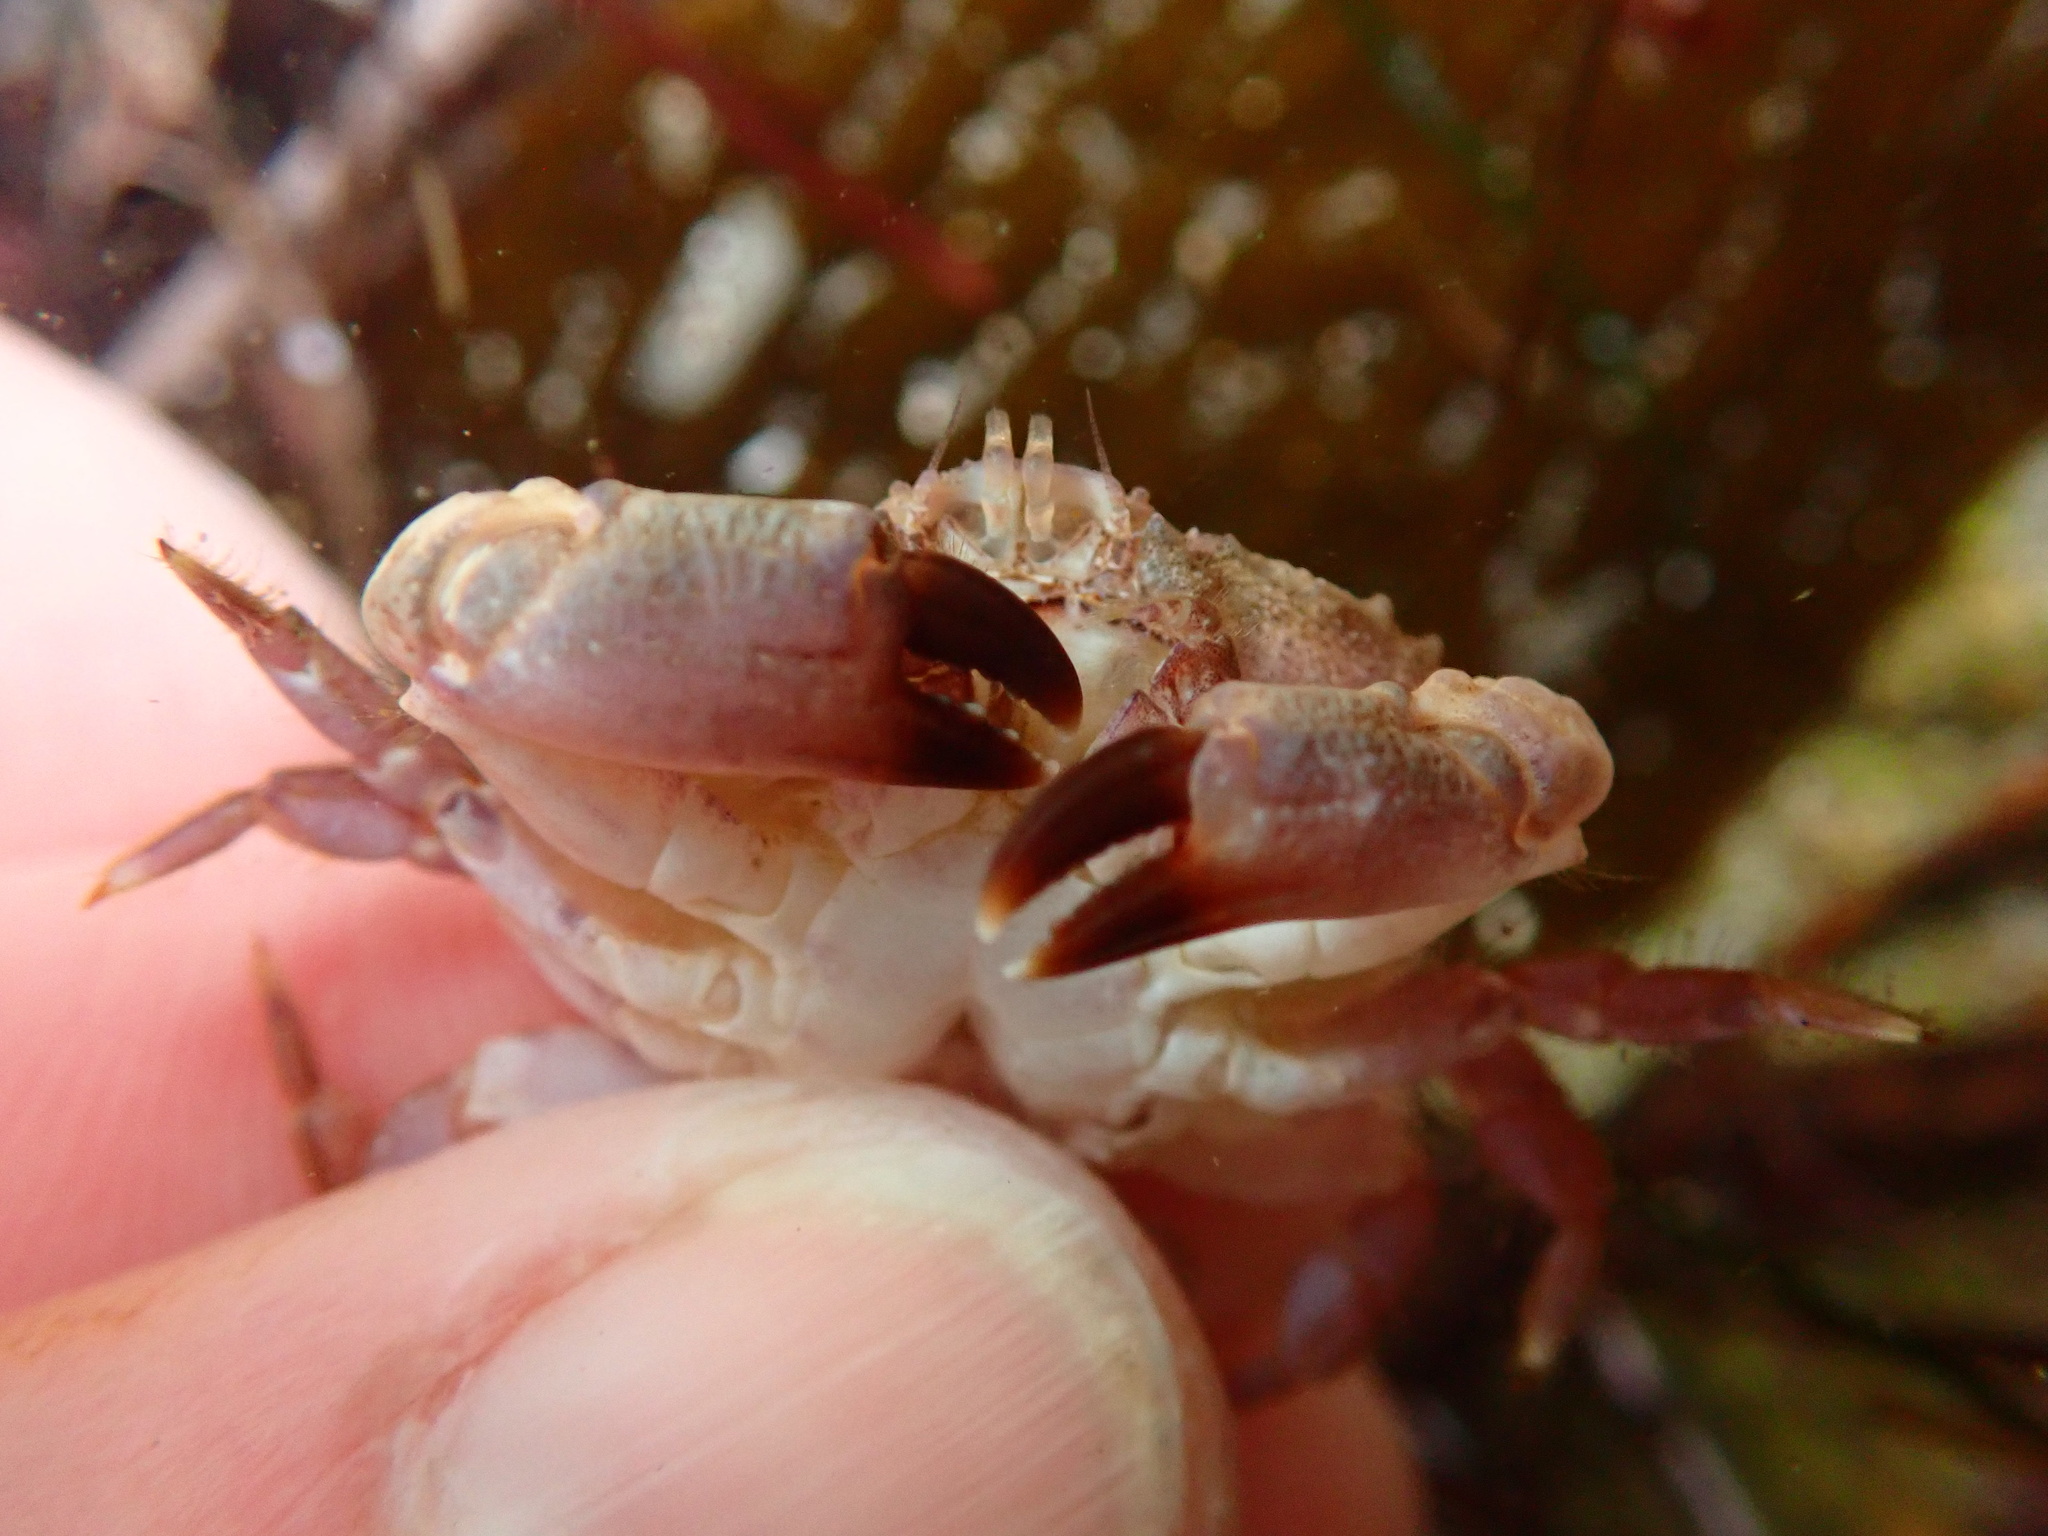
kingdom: Animalia
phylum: Arthropoda
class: Malacostraca
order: Decapoda
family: Xanthidae
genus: Cycloxanthops
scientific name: Cycloxanthops novemdentatus
